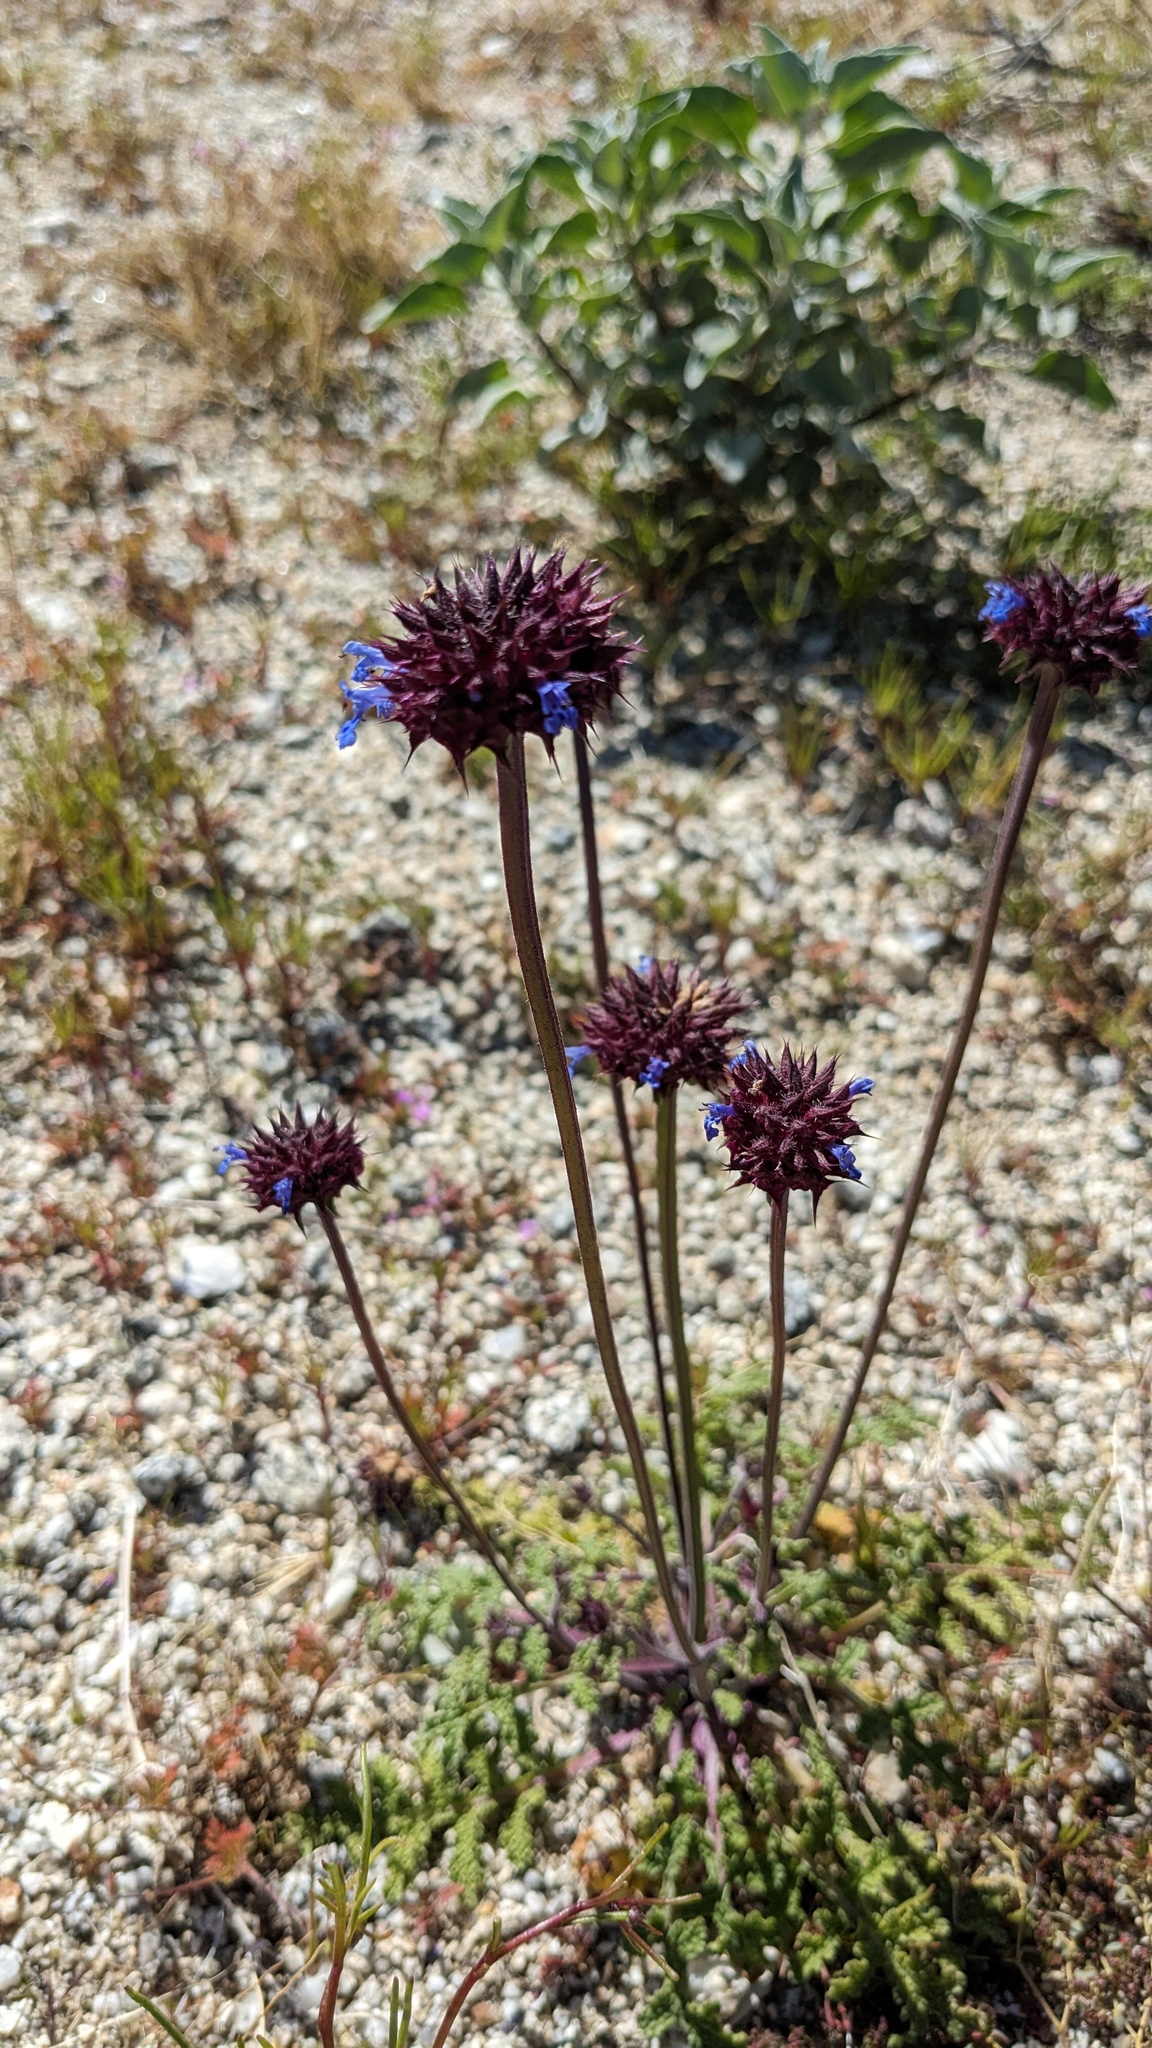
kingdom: Plantae
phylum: Tracheophyta
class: Magnoliopsida
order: Lamiales
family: Lamiaceae
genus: Salvia
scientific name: Salvia columbariae
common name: Chia
